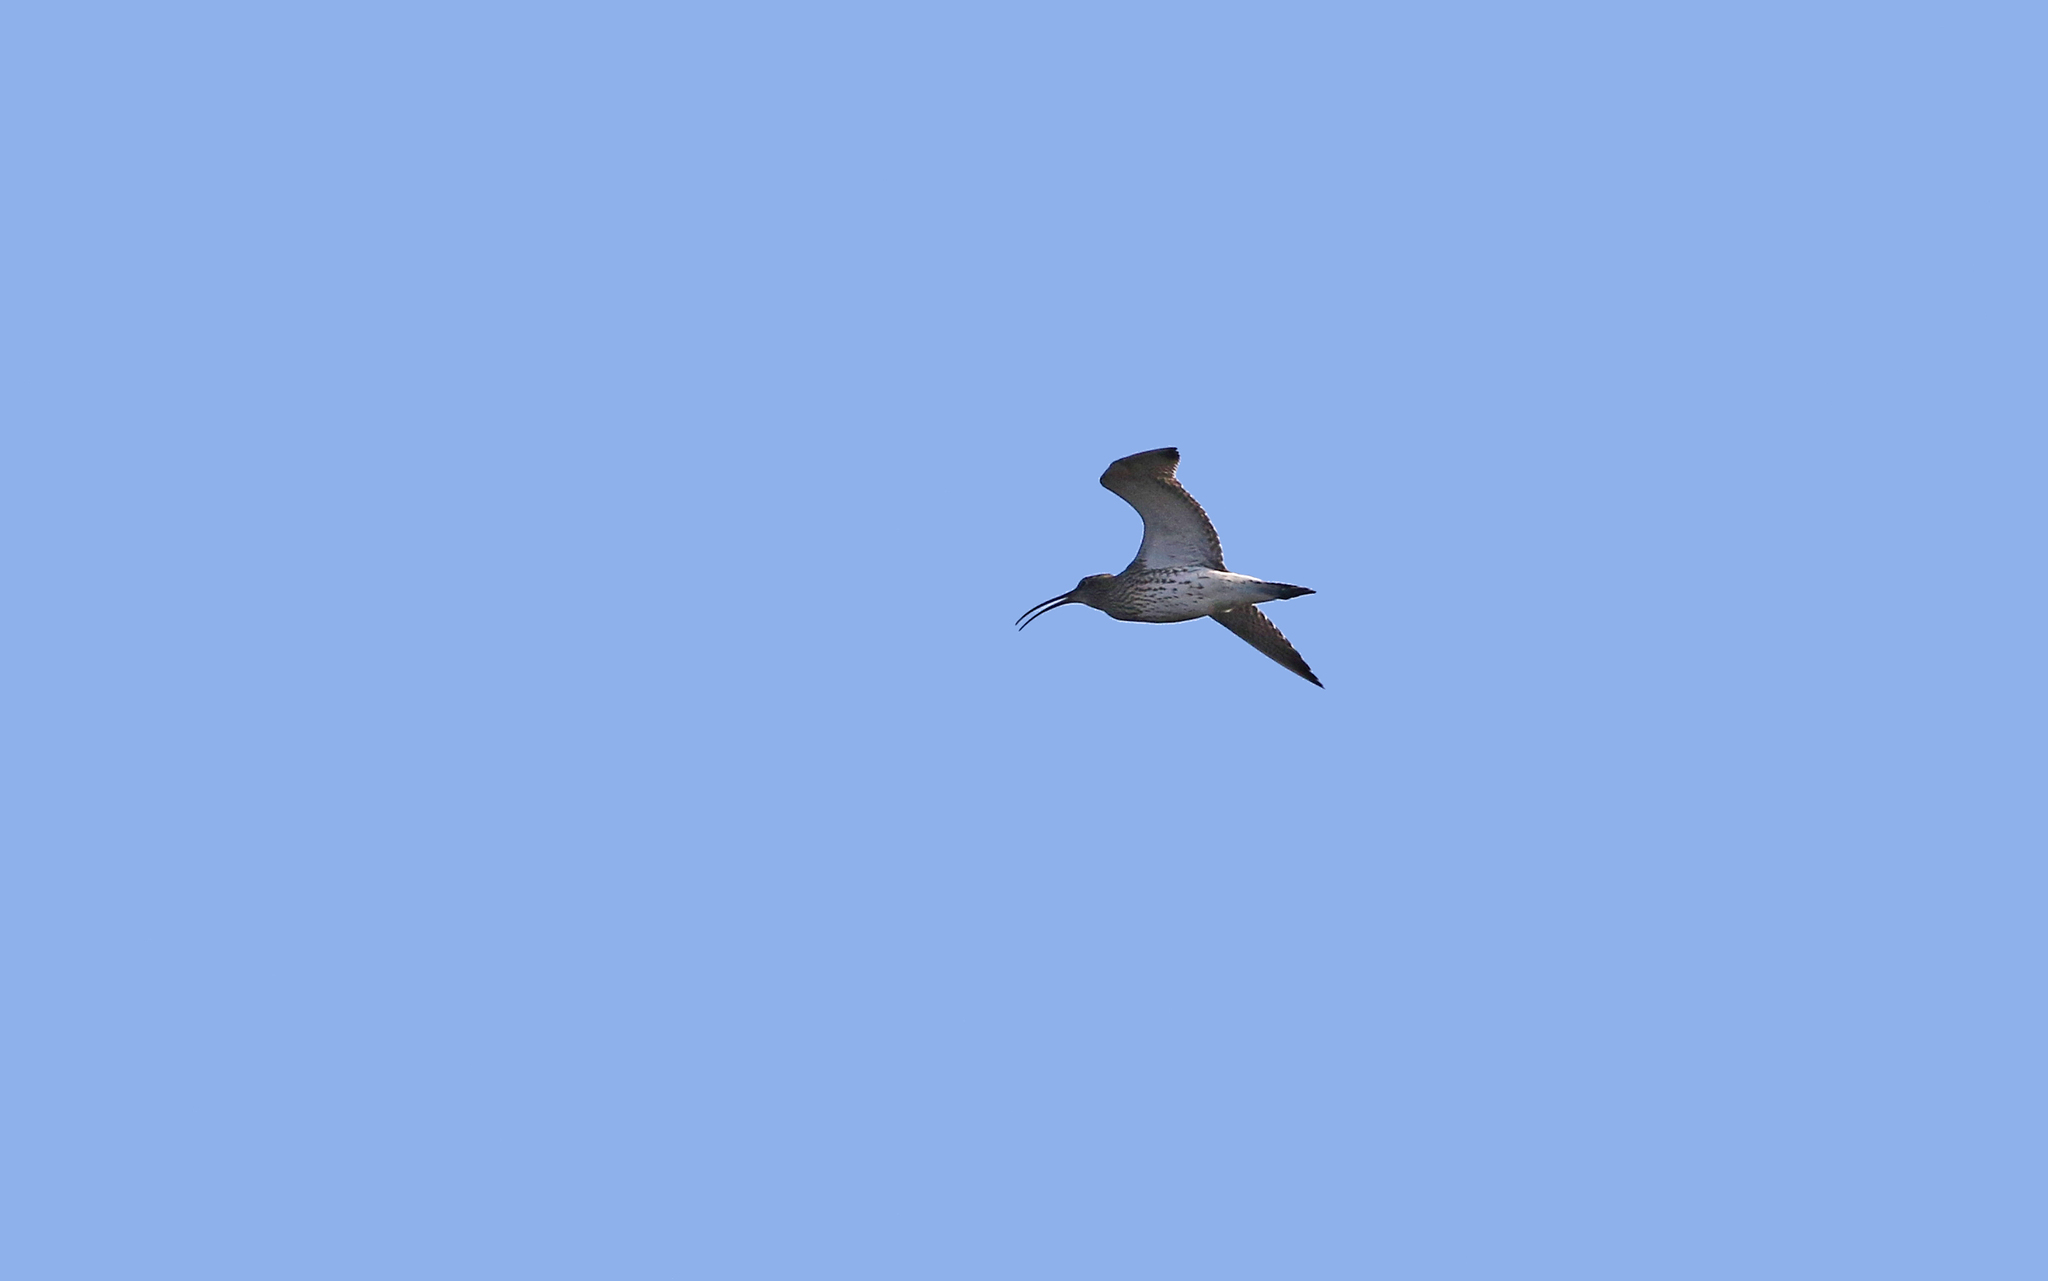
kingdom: Animalia
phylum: Chordata
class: Aves
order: Charadriiformes
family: Scolopacidae
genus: Numenius
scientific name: Numenius arquata
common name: Eurasian curlew
